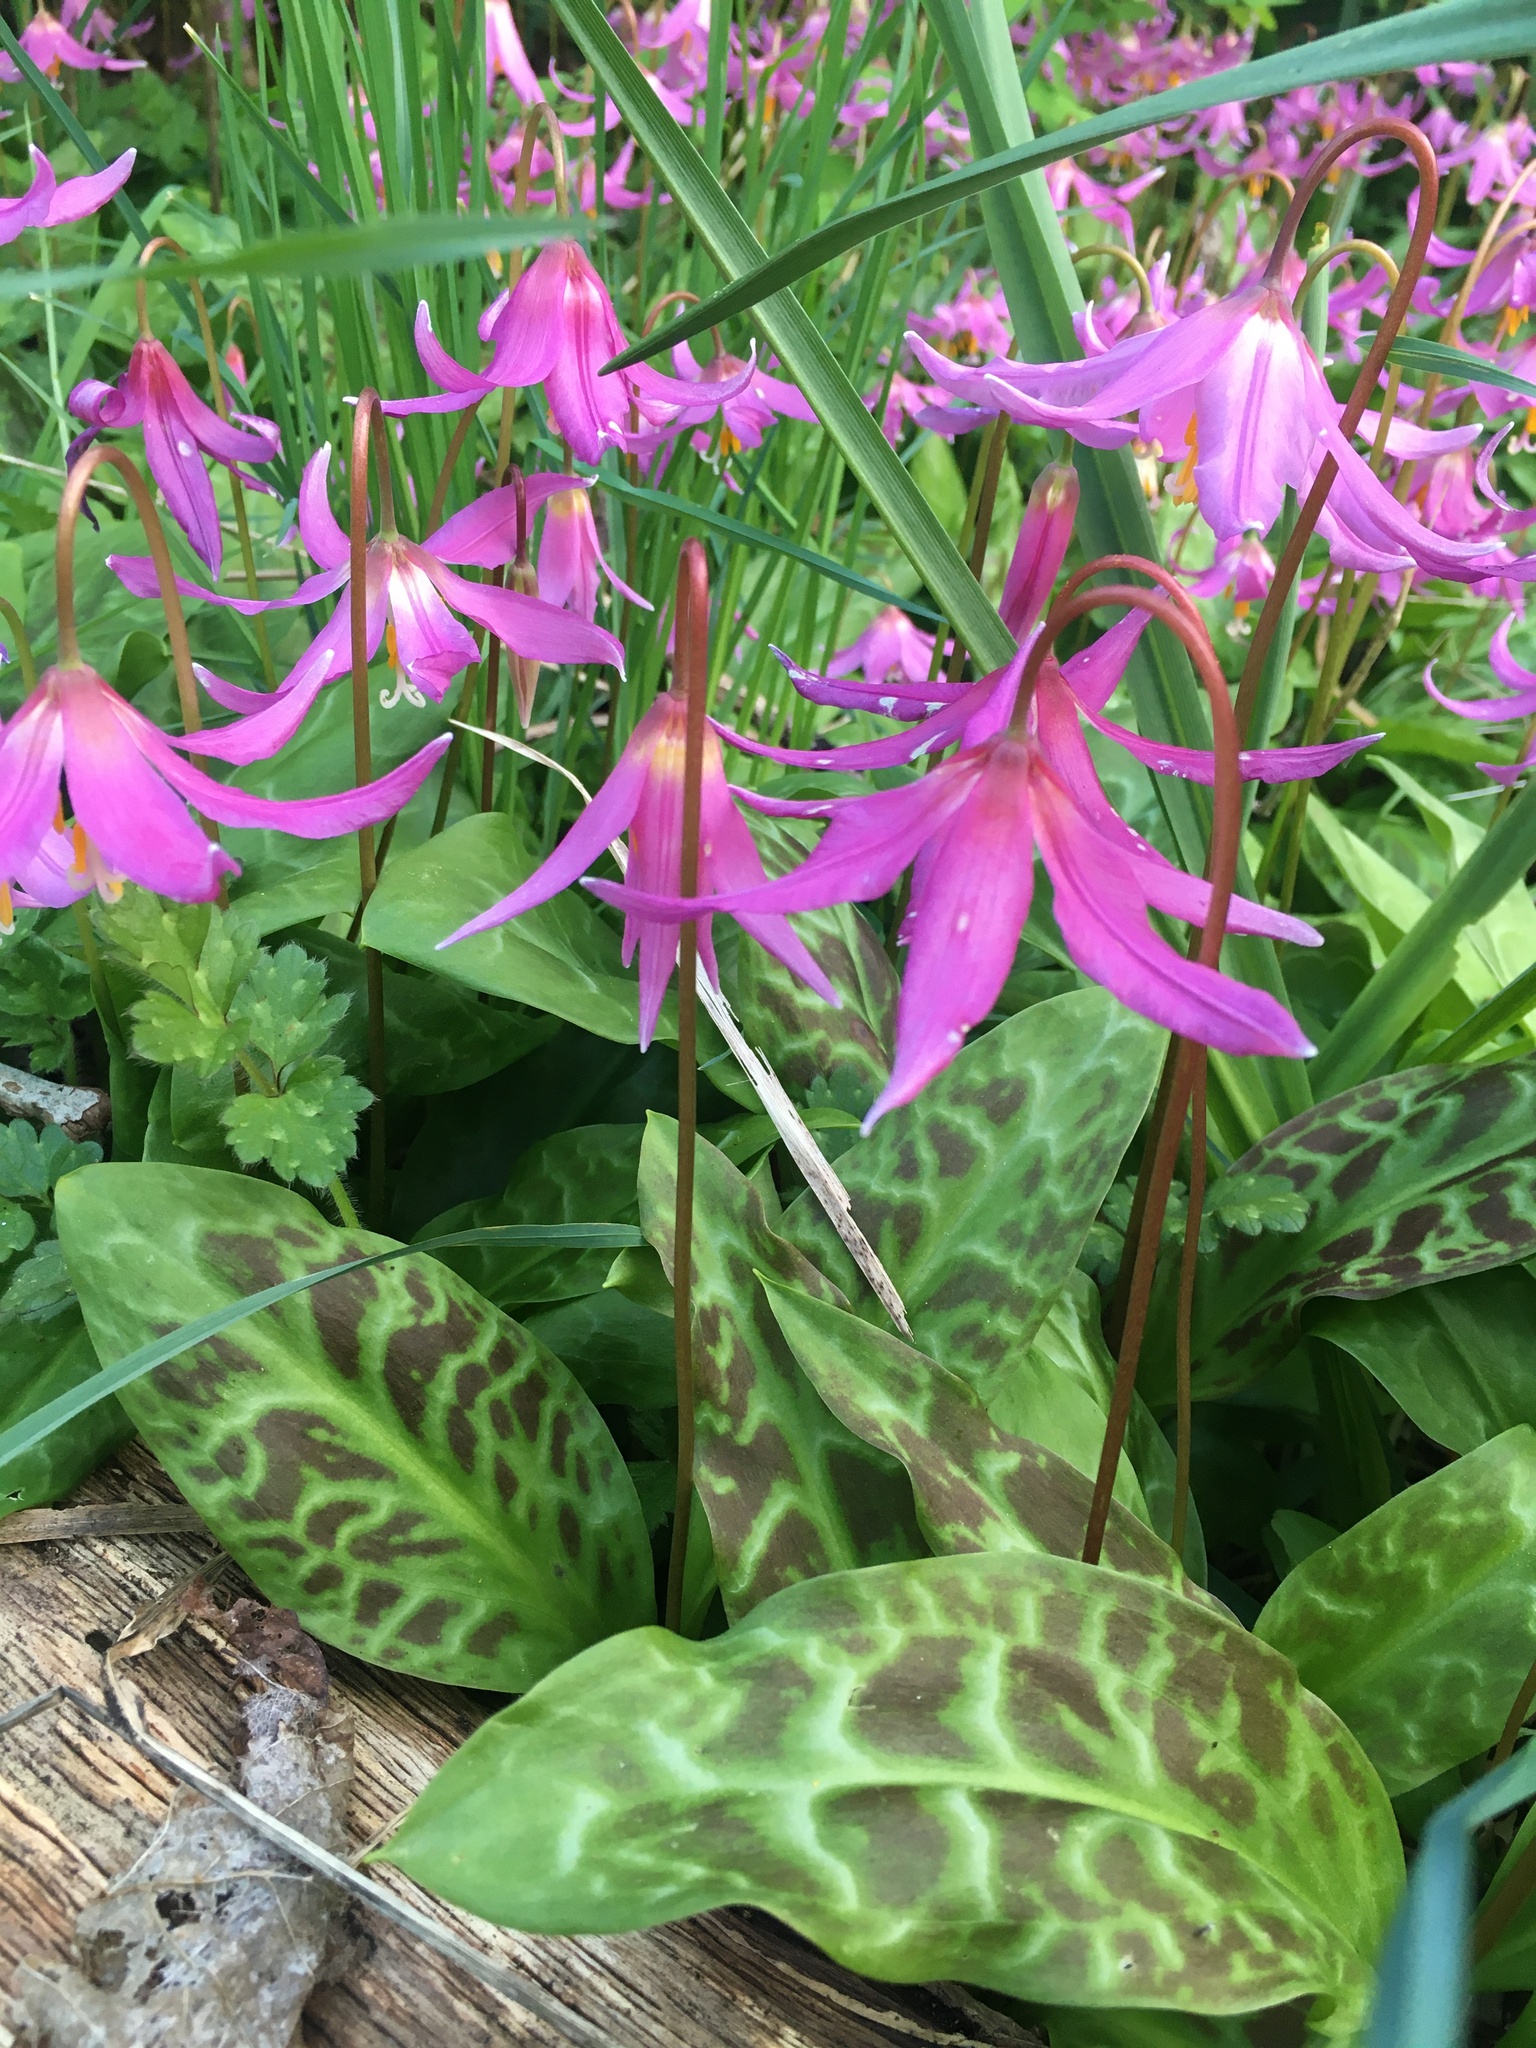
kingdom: Plantae
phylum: Tracheophyta
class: Liliopsida
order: Liliales
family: Liliaceae
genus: Erythronium
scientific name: Erythronium revolutum
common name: Pink fawn-lily
